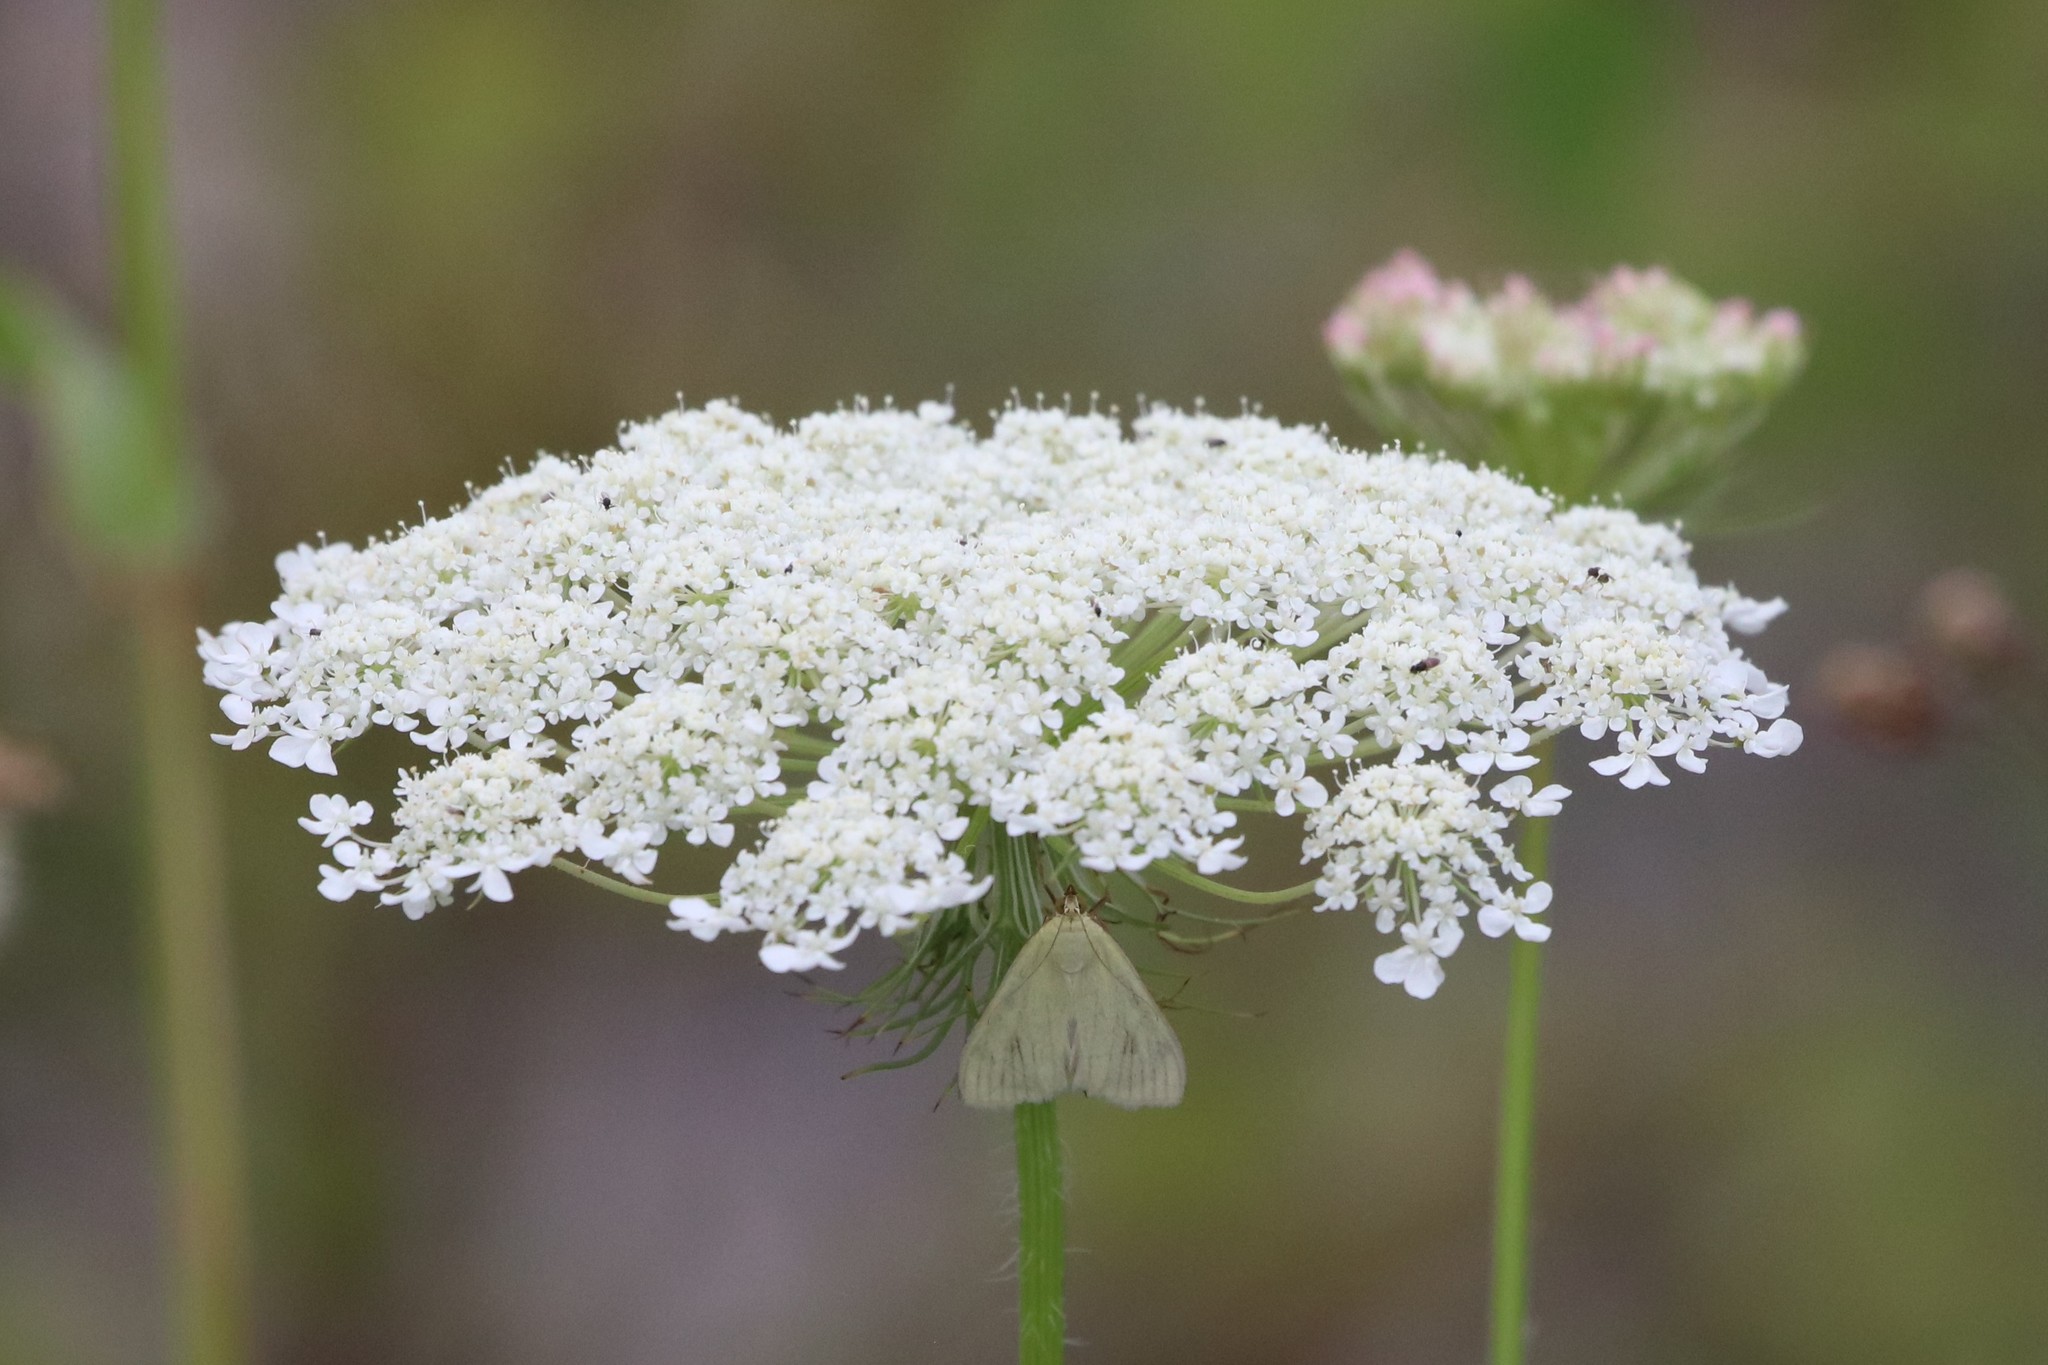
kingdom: Plantae
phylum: Tracheophyta
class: Magnoliopsida
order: Apiales
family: Apiaceae
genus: Daucus
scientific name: Daucus carota
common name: Wild carrot
